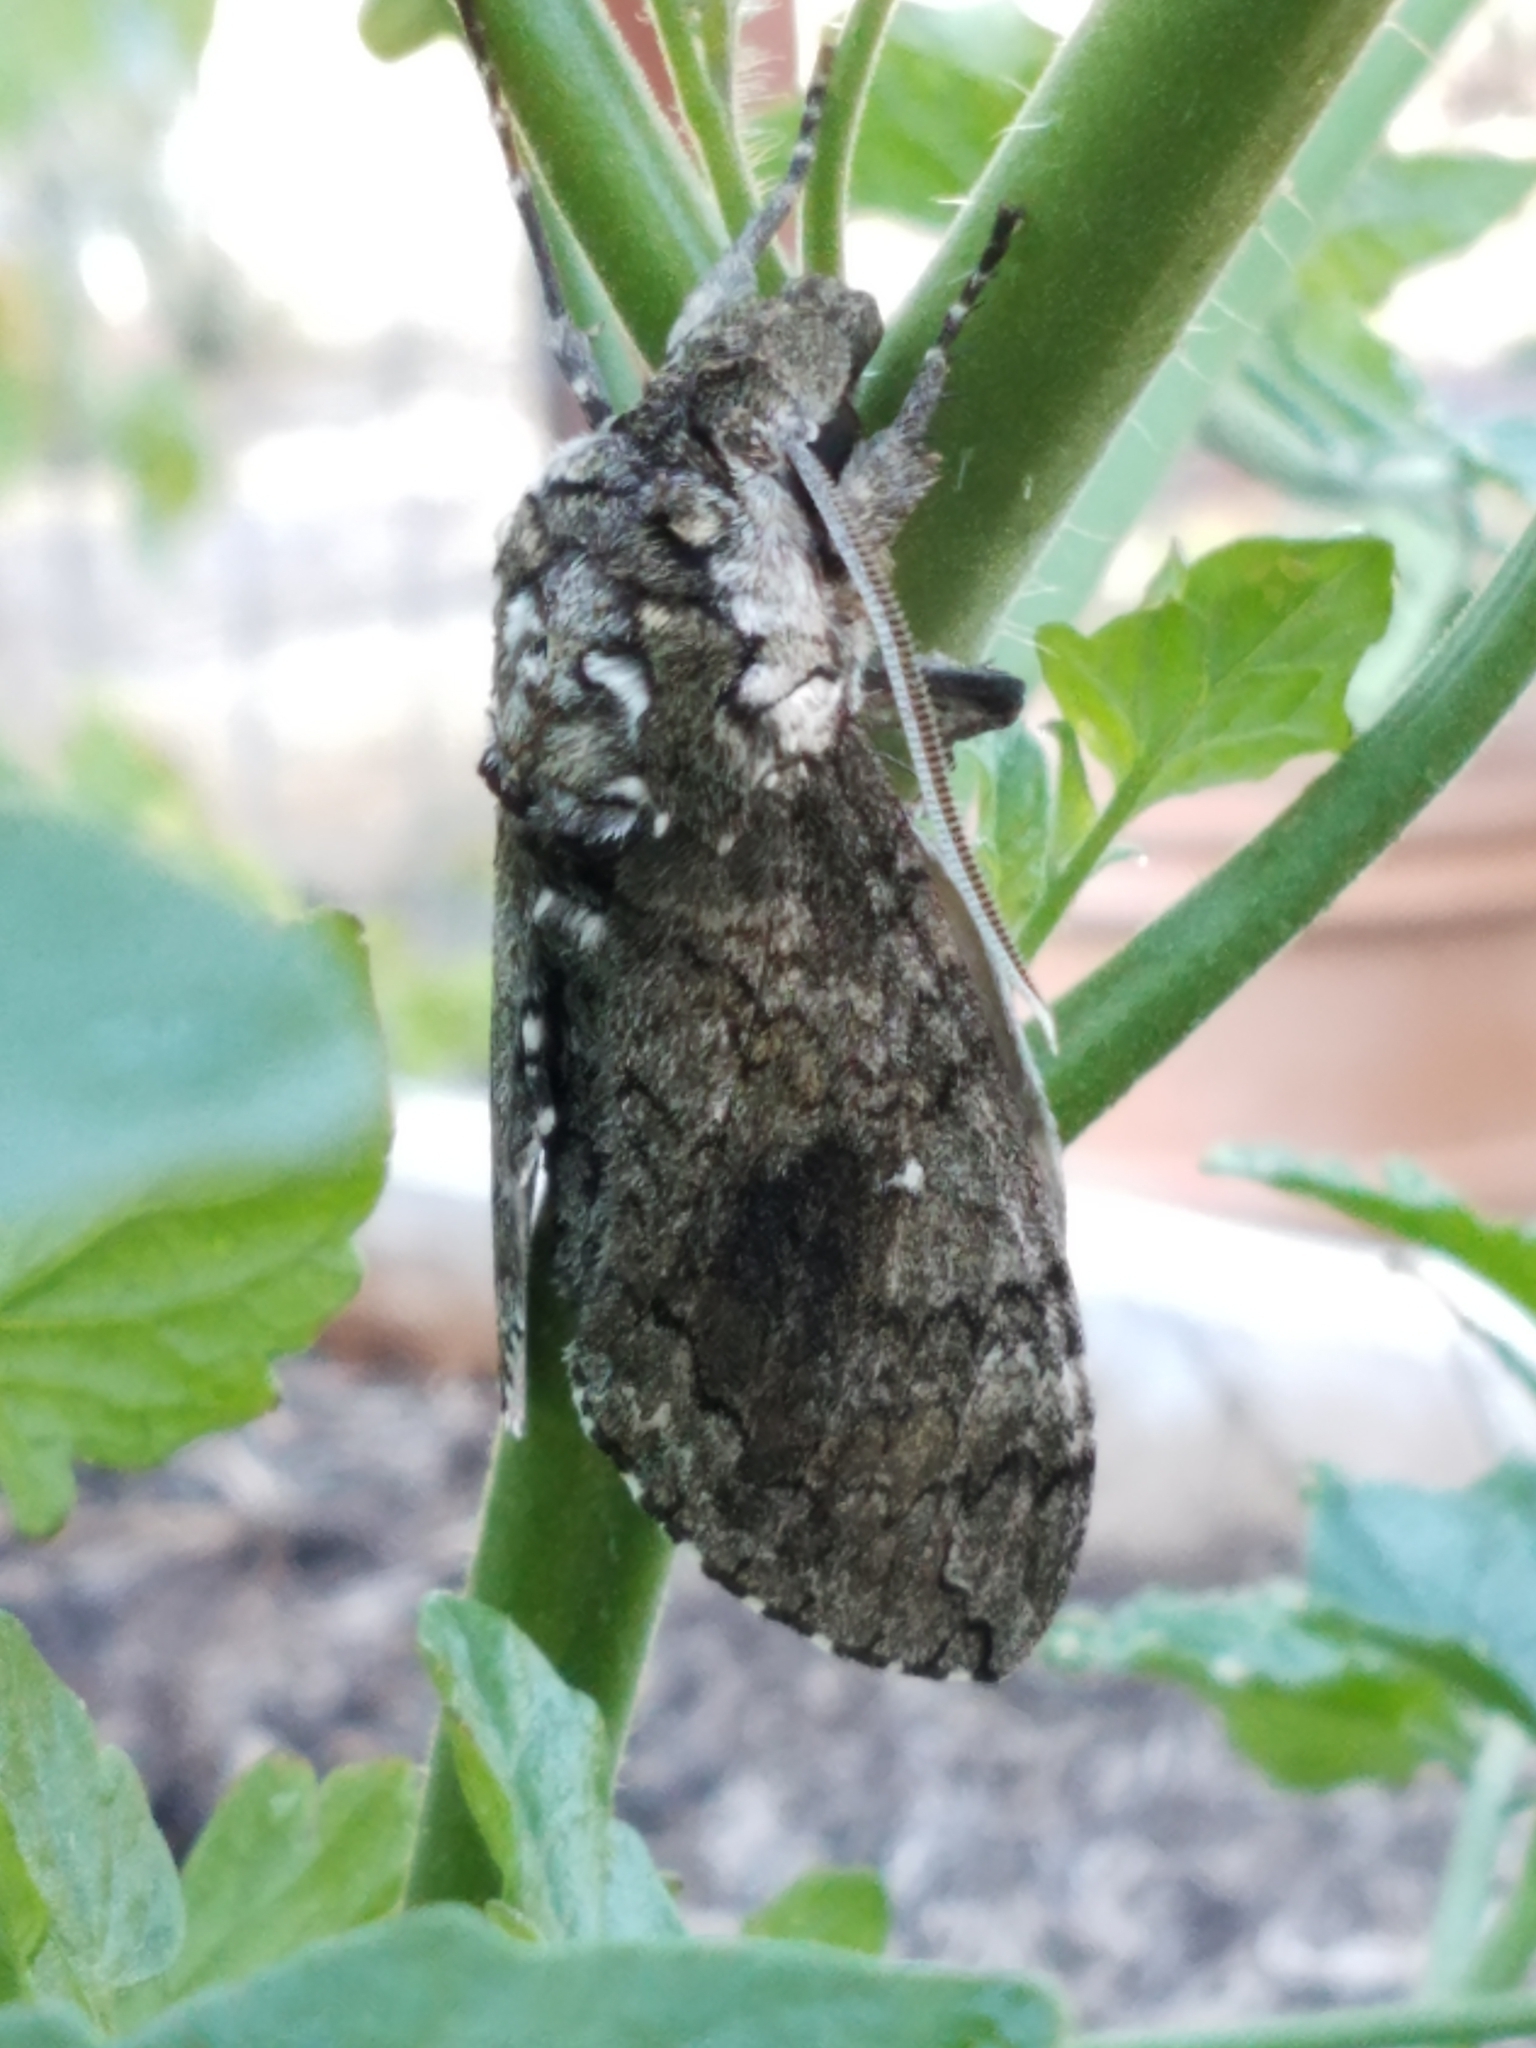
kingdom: Animalia
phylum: Arthropoda
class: Insecta
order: Lepidoptera
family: Sphingidae
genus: Manduca
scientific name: Manduca sexta
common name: Carolina sphinx
